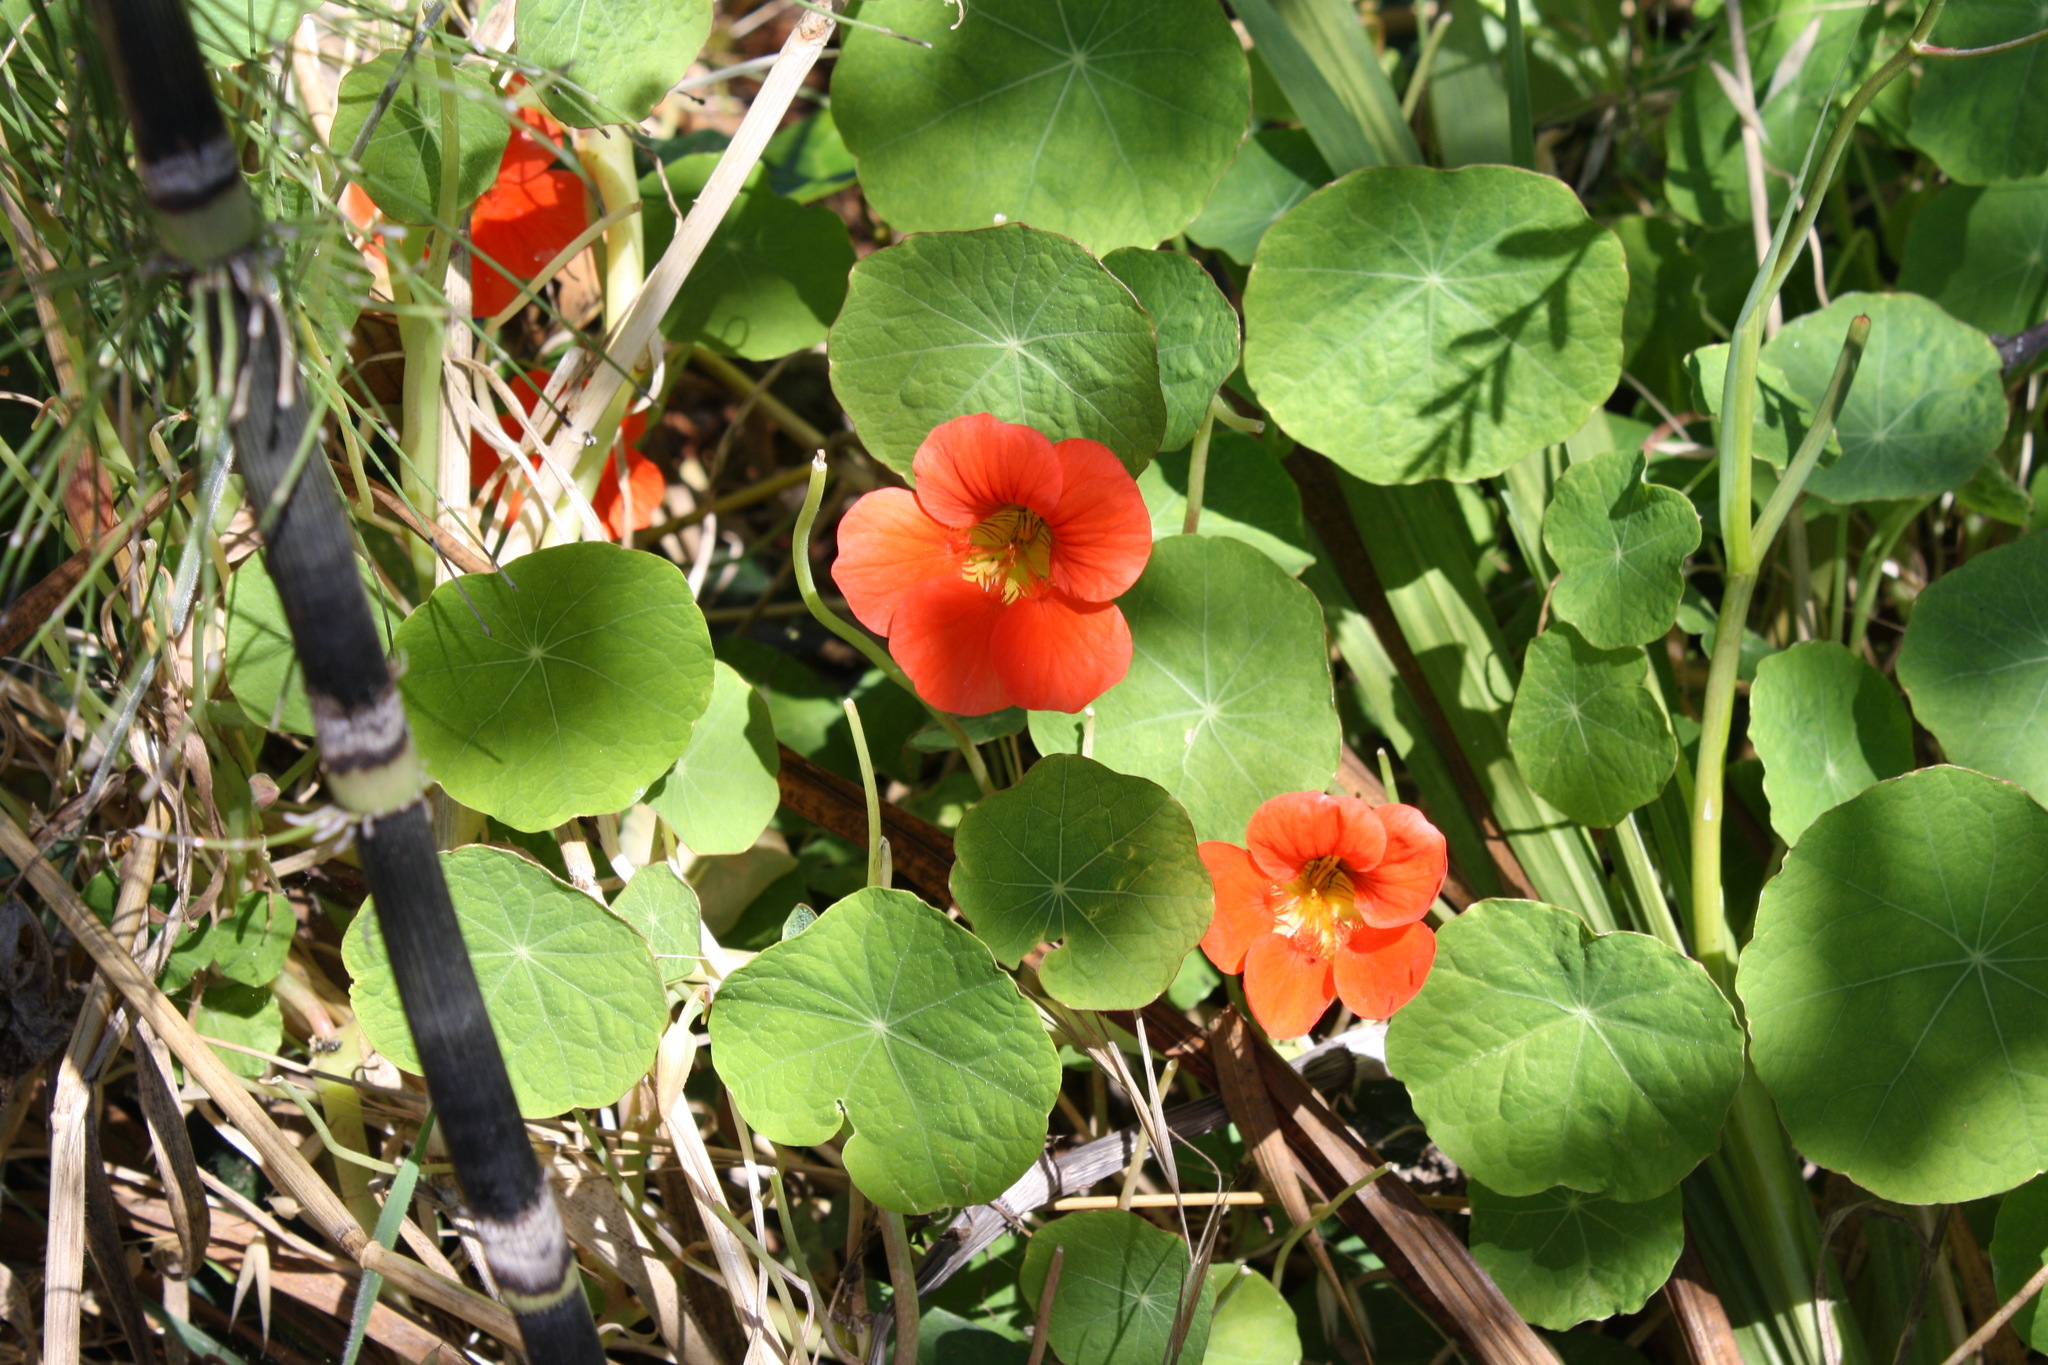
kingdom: Plantae
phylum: Tracheophyta
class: Magnoliopsida
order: Brassicales
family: Tropaeolaceae
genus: Tropaeolum
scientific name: Tropaeolum majus
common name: Nasturtium
